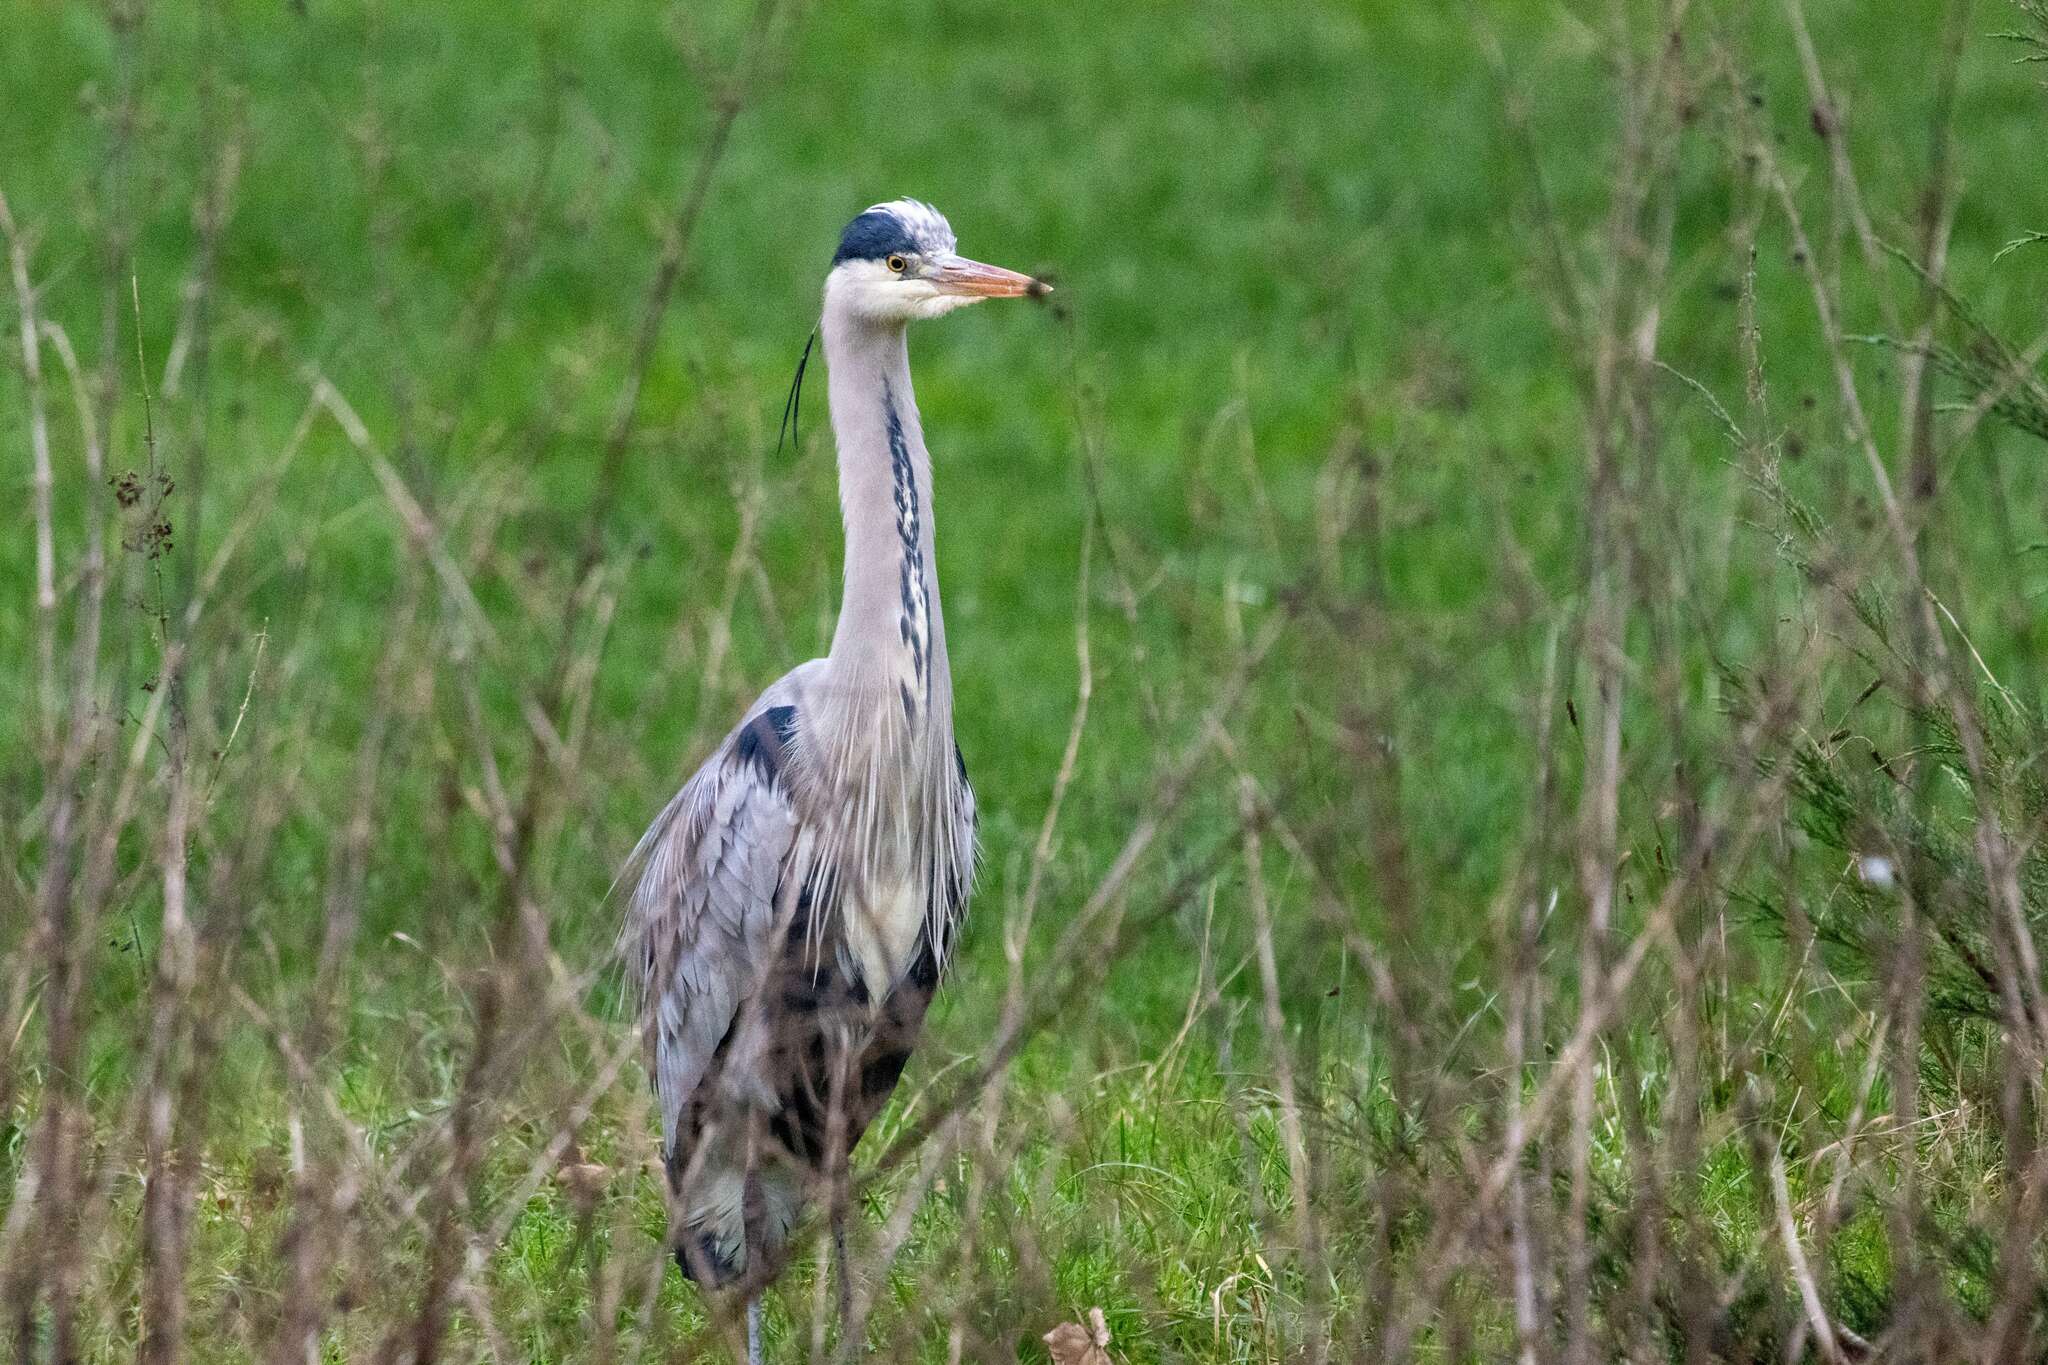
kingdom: Animalia
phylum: Chordata
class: Aves
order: Pelecaniformes
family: Ardeidae
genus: Ardea
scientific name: Ardea cinerea
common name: Grey heron
